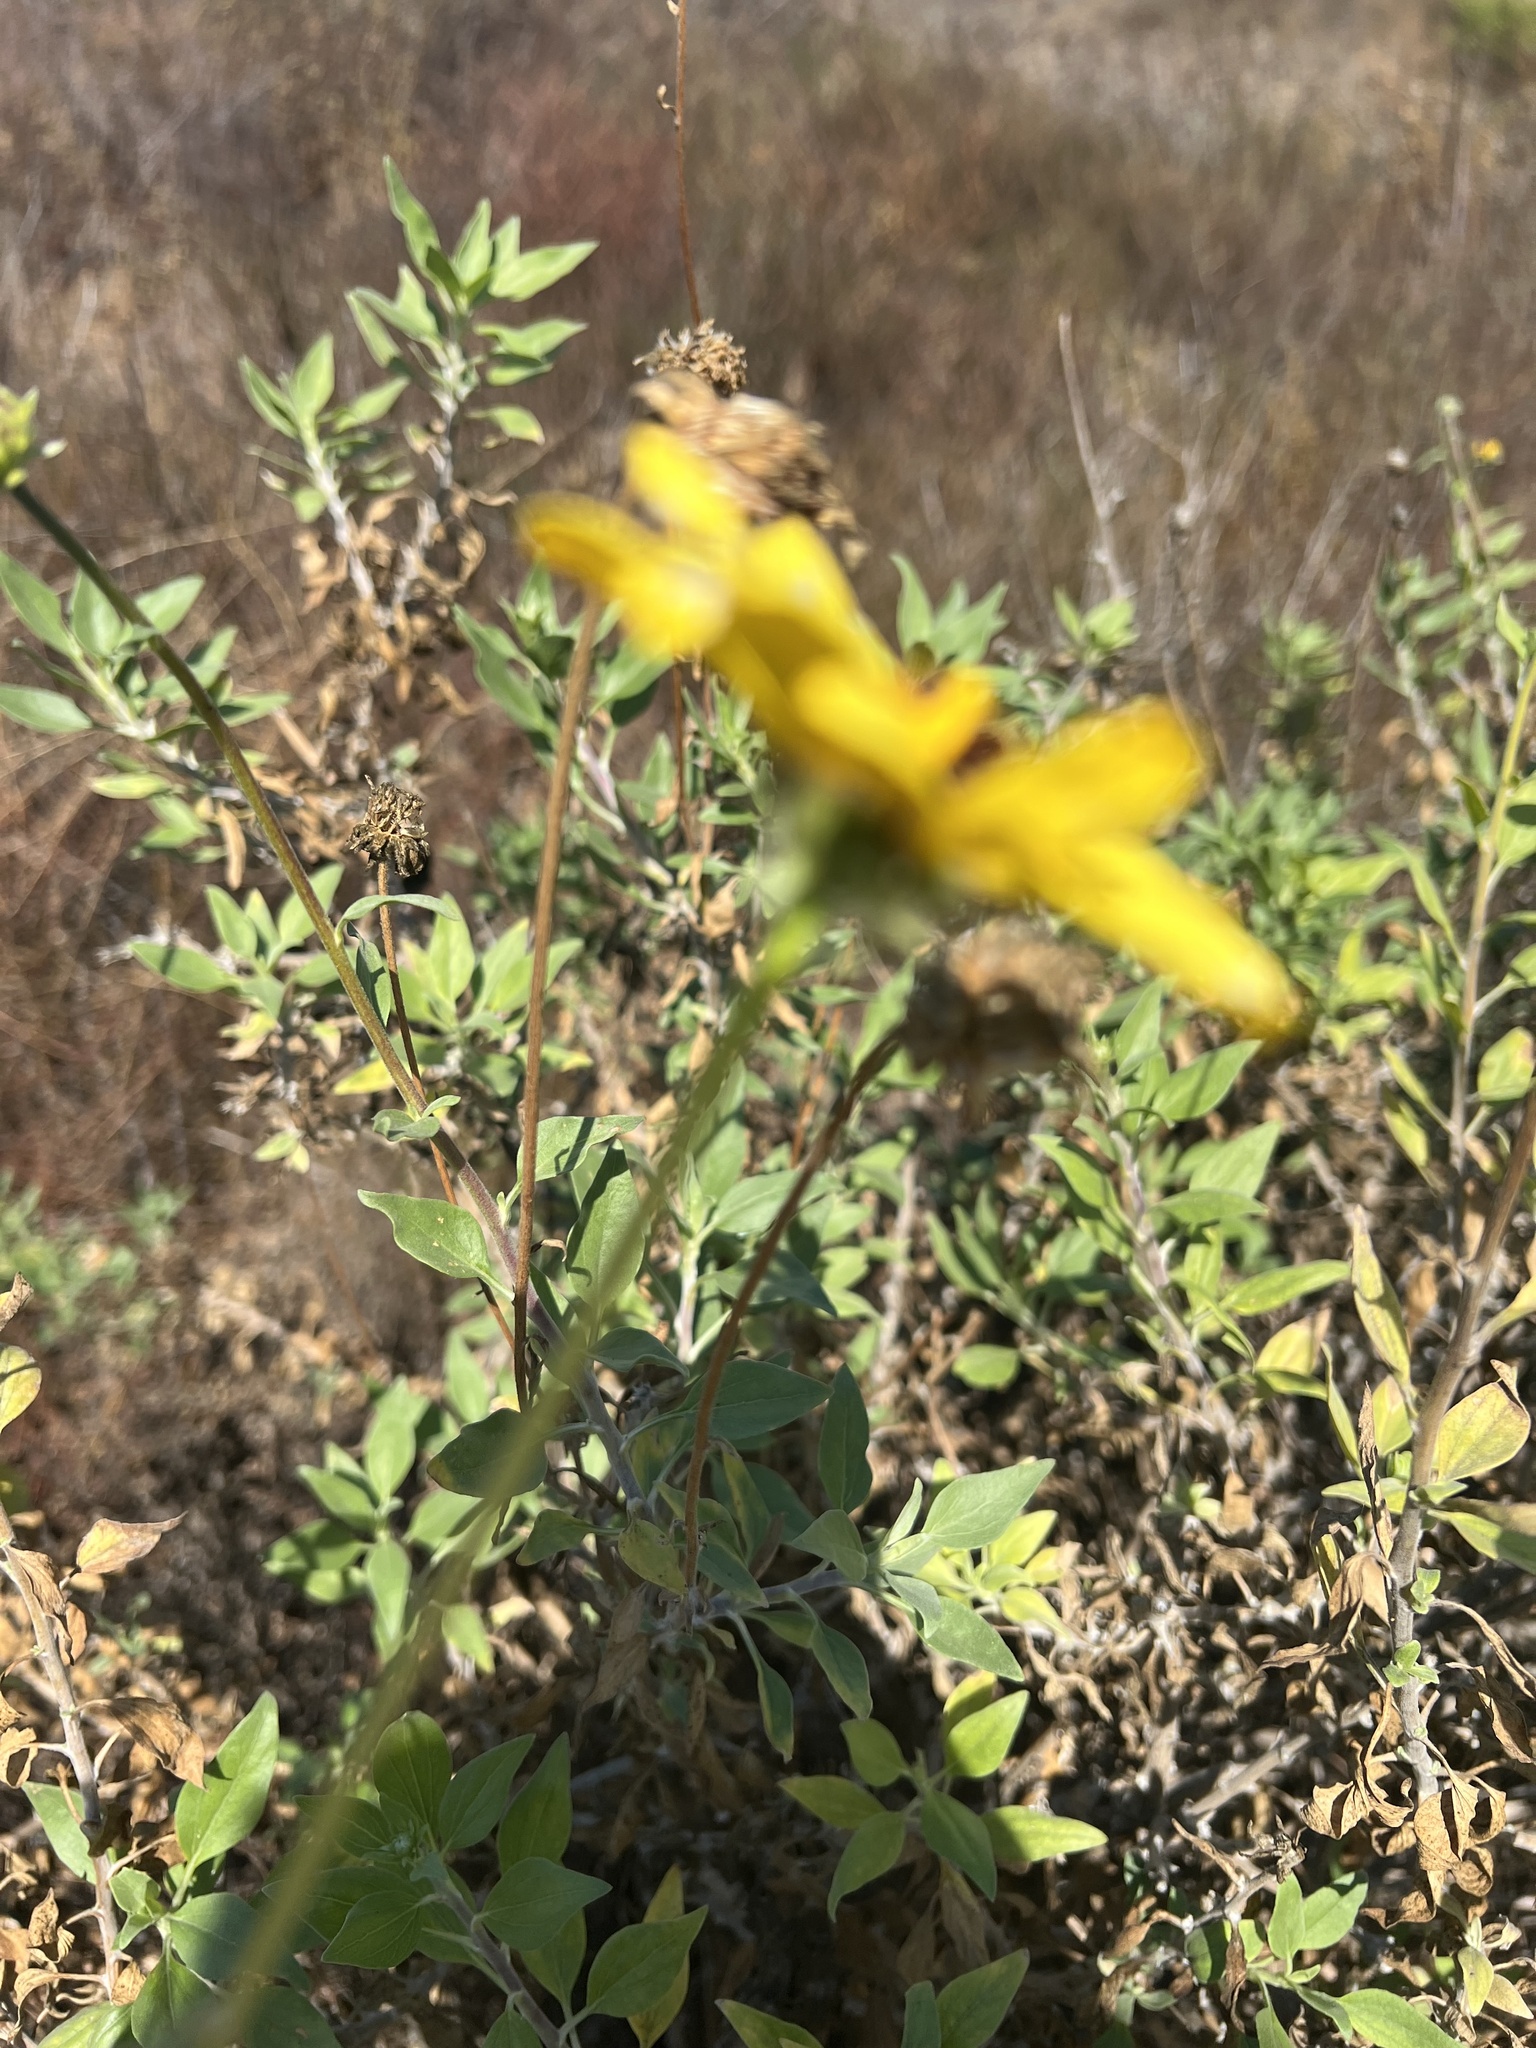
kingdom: Plantae
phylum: Tracheophyta
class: Magnoliopsida
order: Asterales
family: Asteraceae
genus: Encelia
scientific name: Encelia californica
